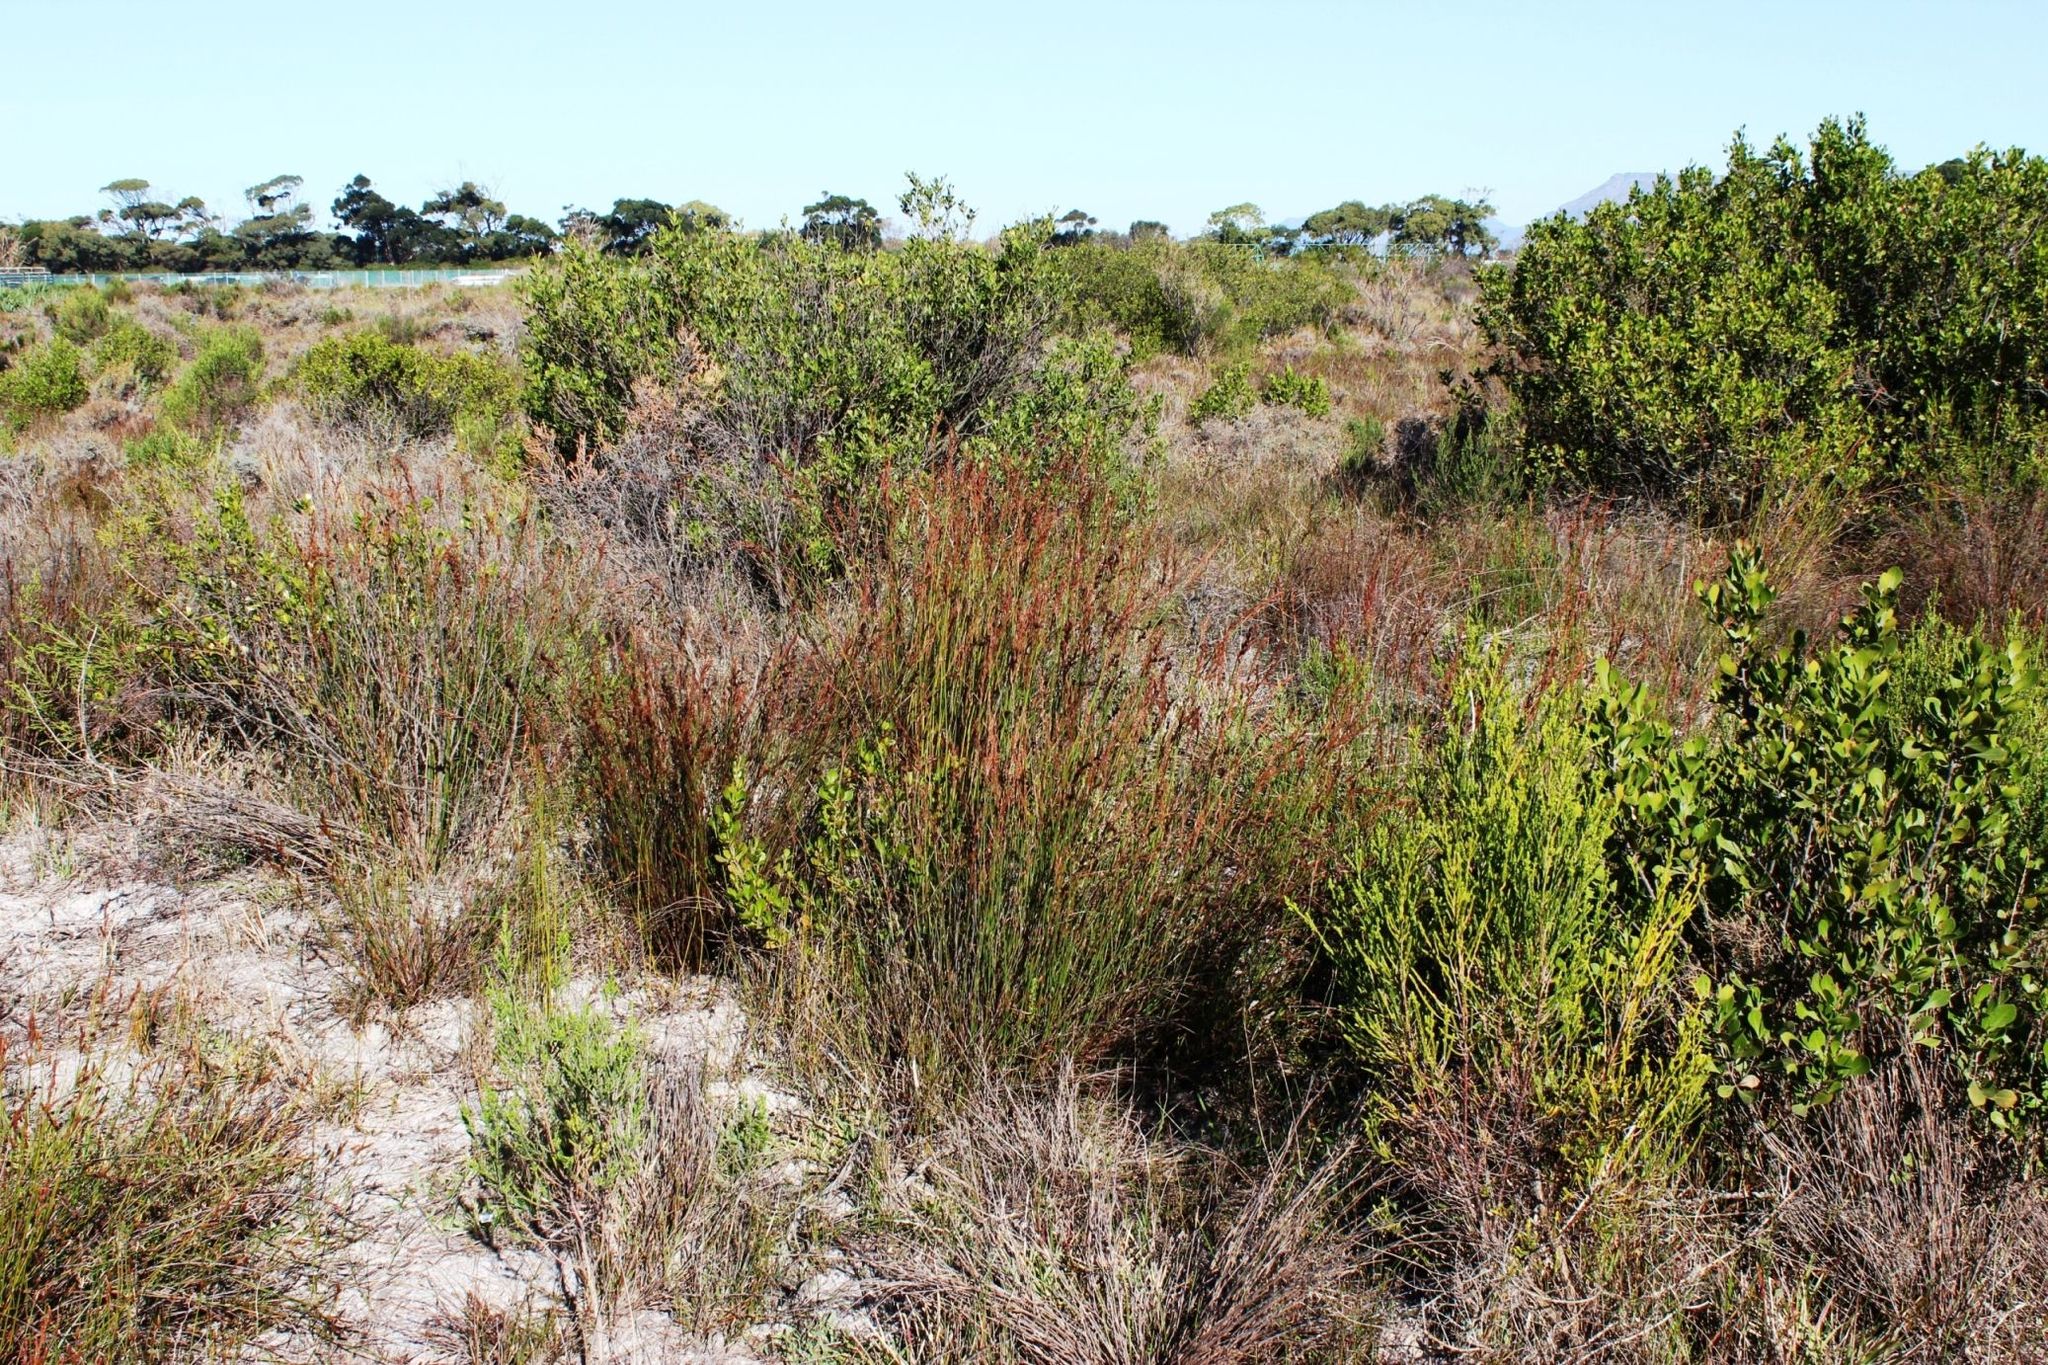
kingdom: Plantae
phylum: Tracheophyta
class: Liliopsida
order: Poales
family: Restionaceae
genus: Restio
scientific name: Restio bifurcus
